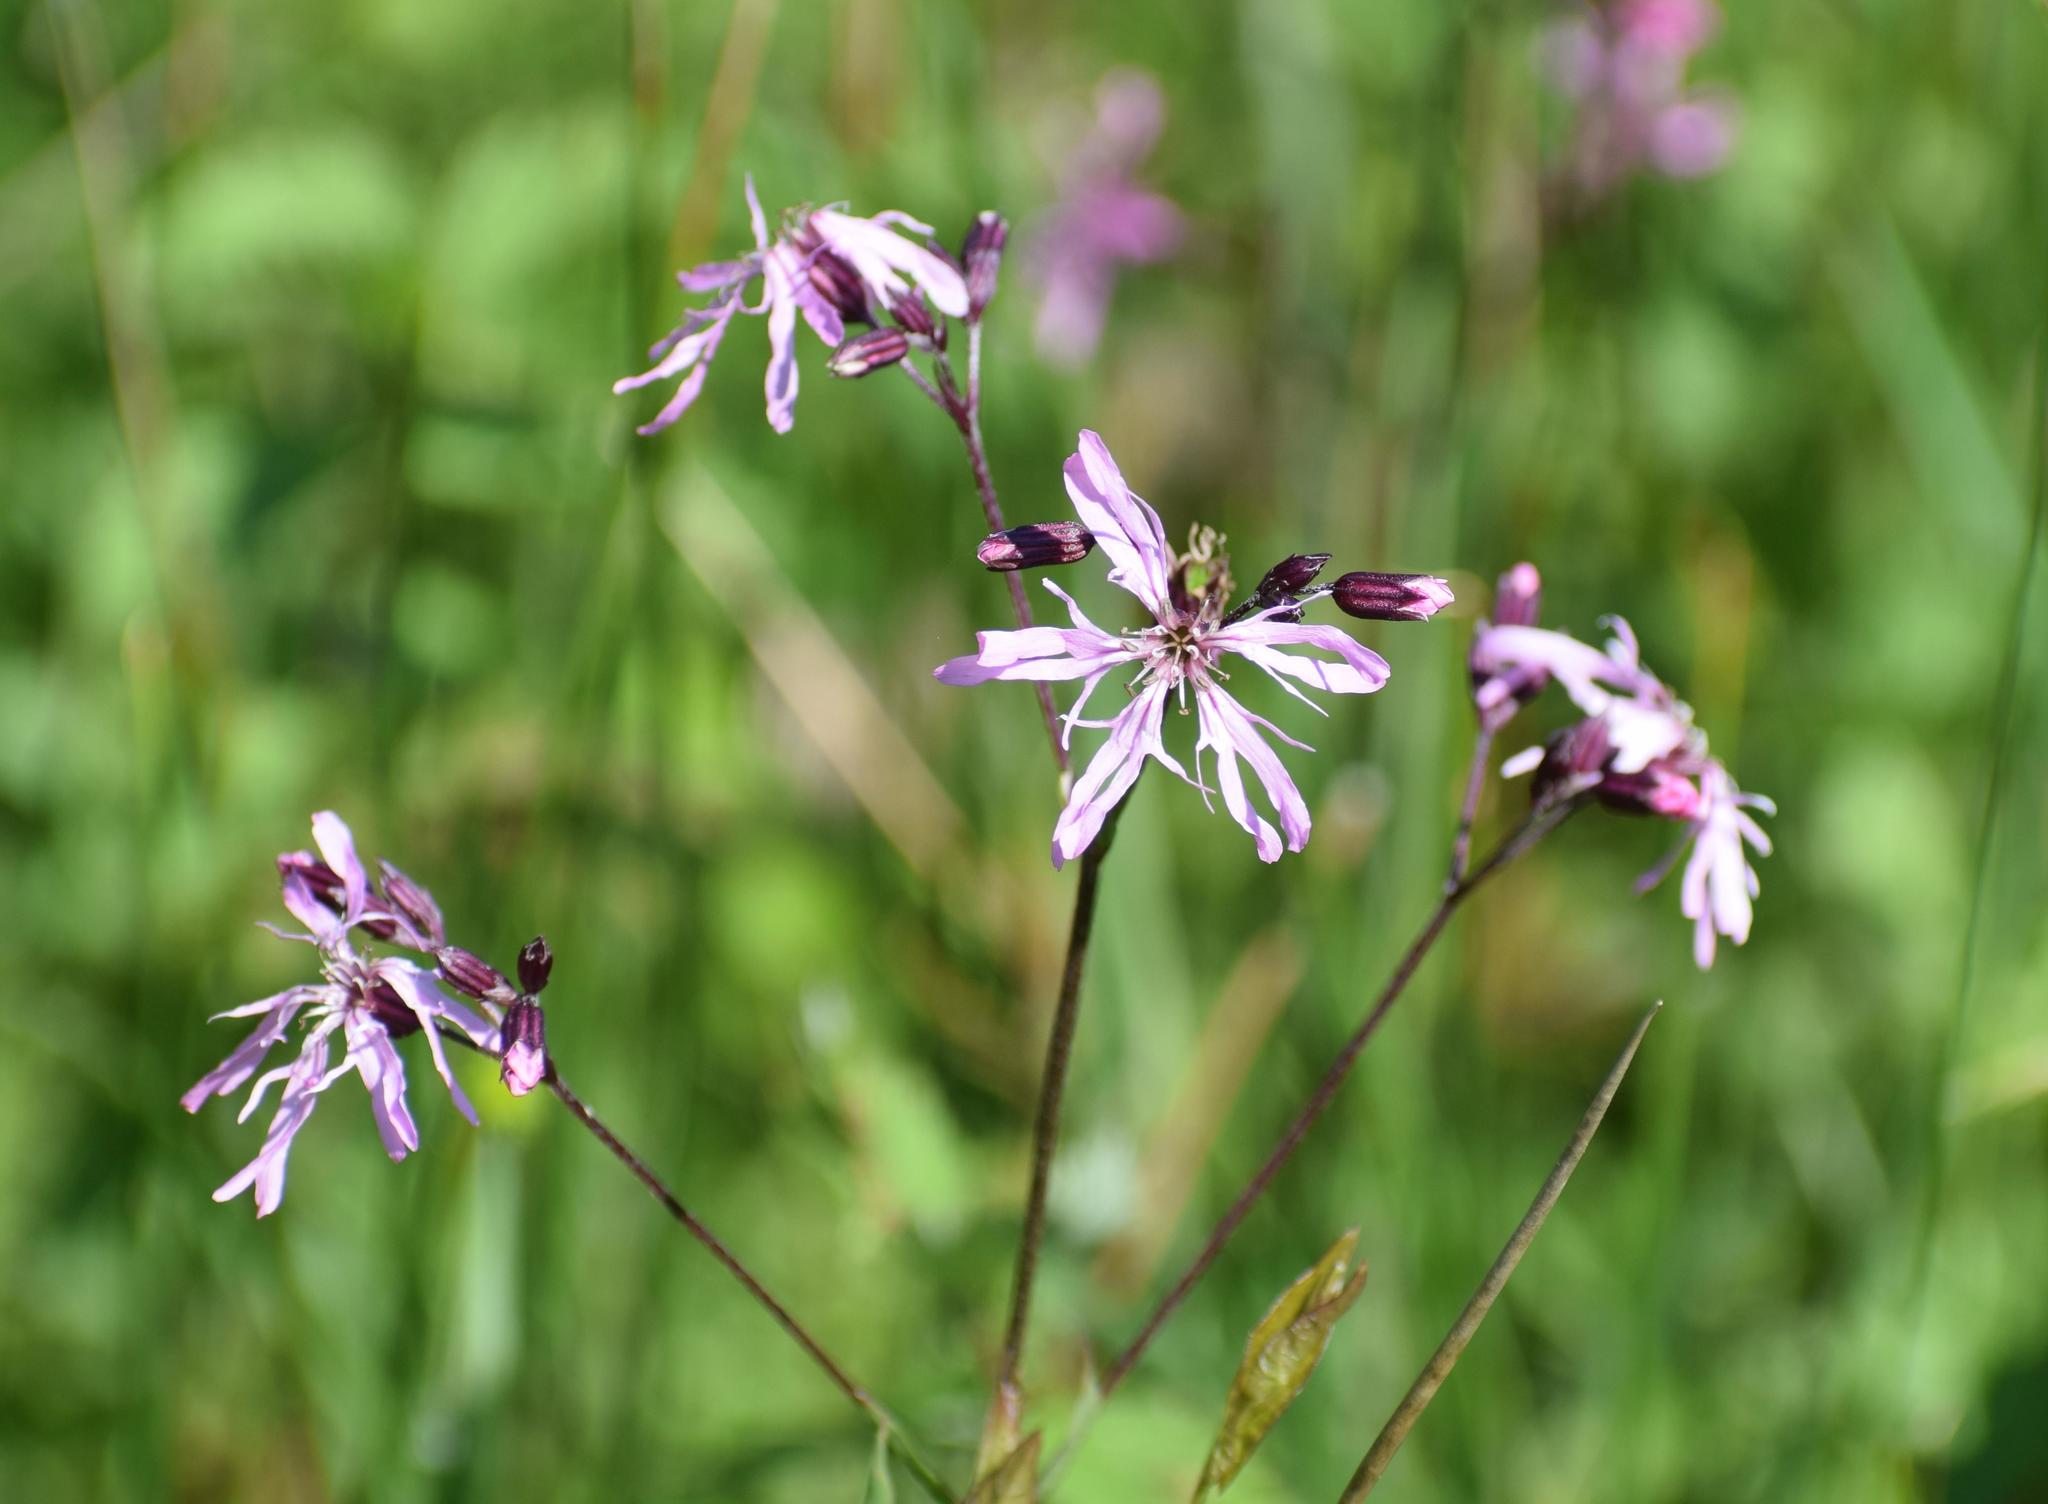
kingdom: Plantae
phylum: Tracheophyta
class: Magnoliopsida
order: Caryophyllales
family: Caryophyllaceae
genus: Silene
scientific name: Silene flos-cuculi
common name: Ragged-robin
